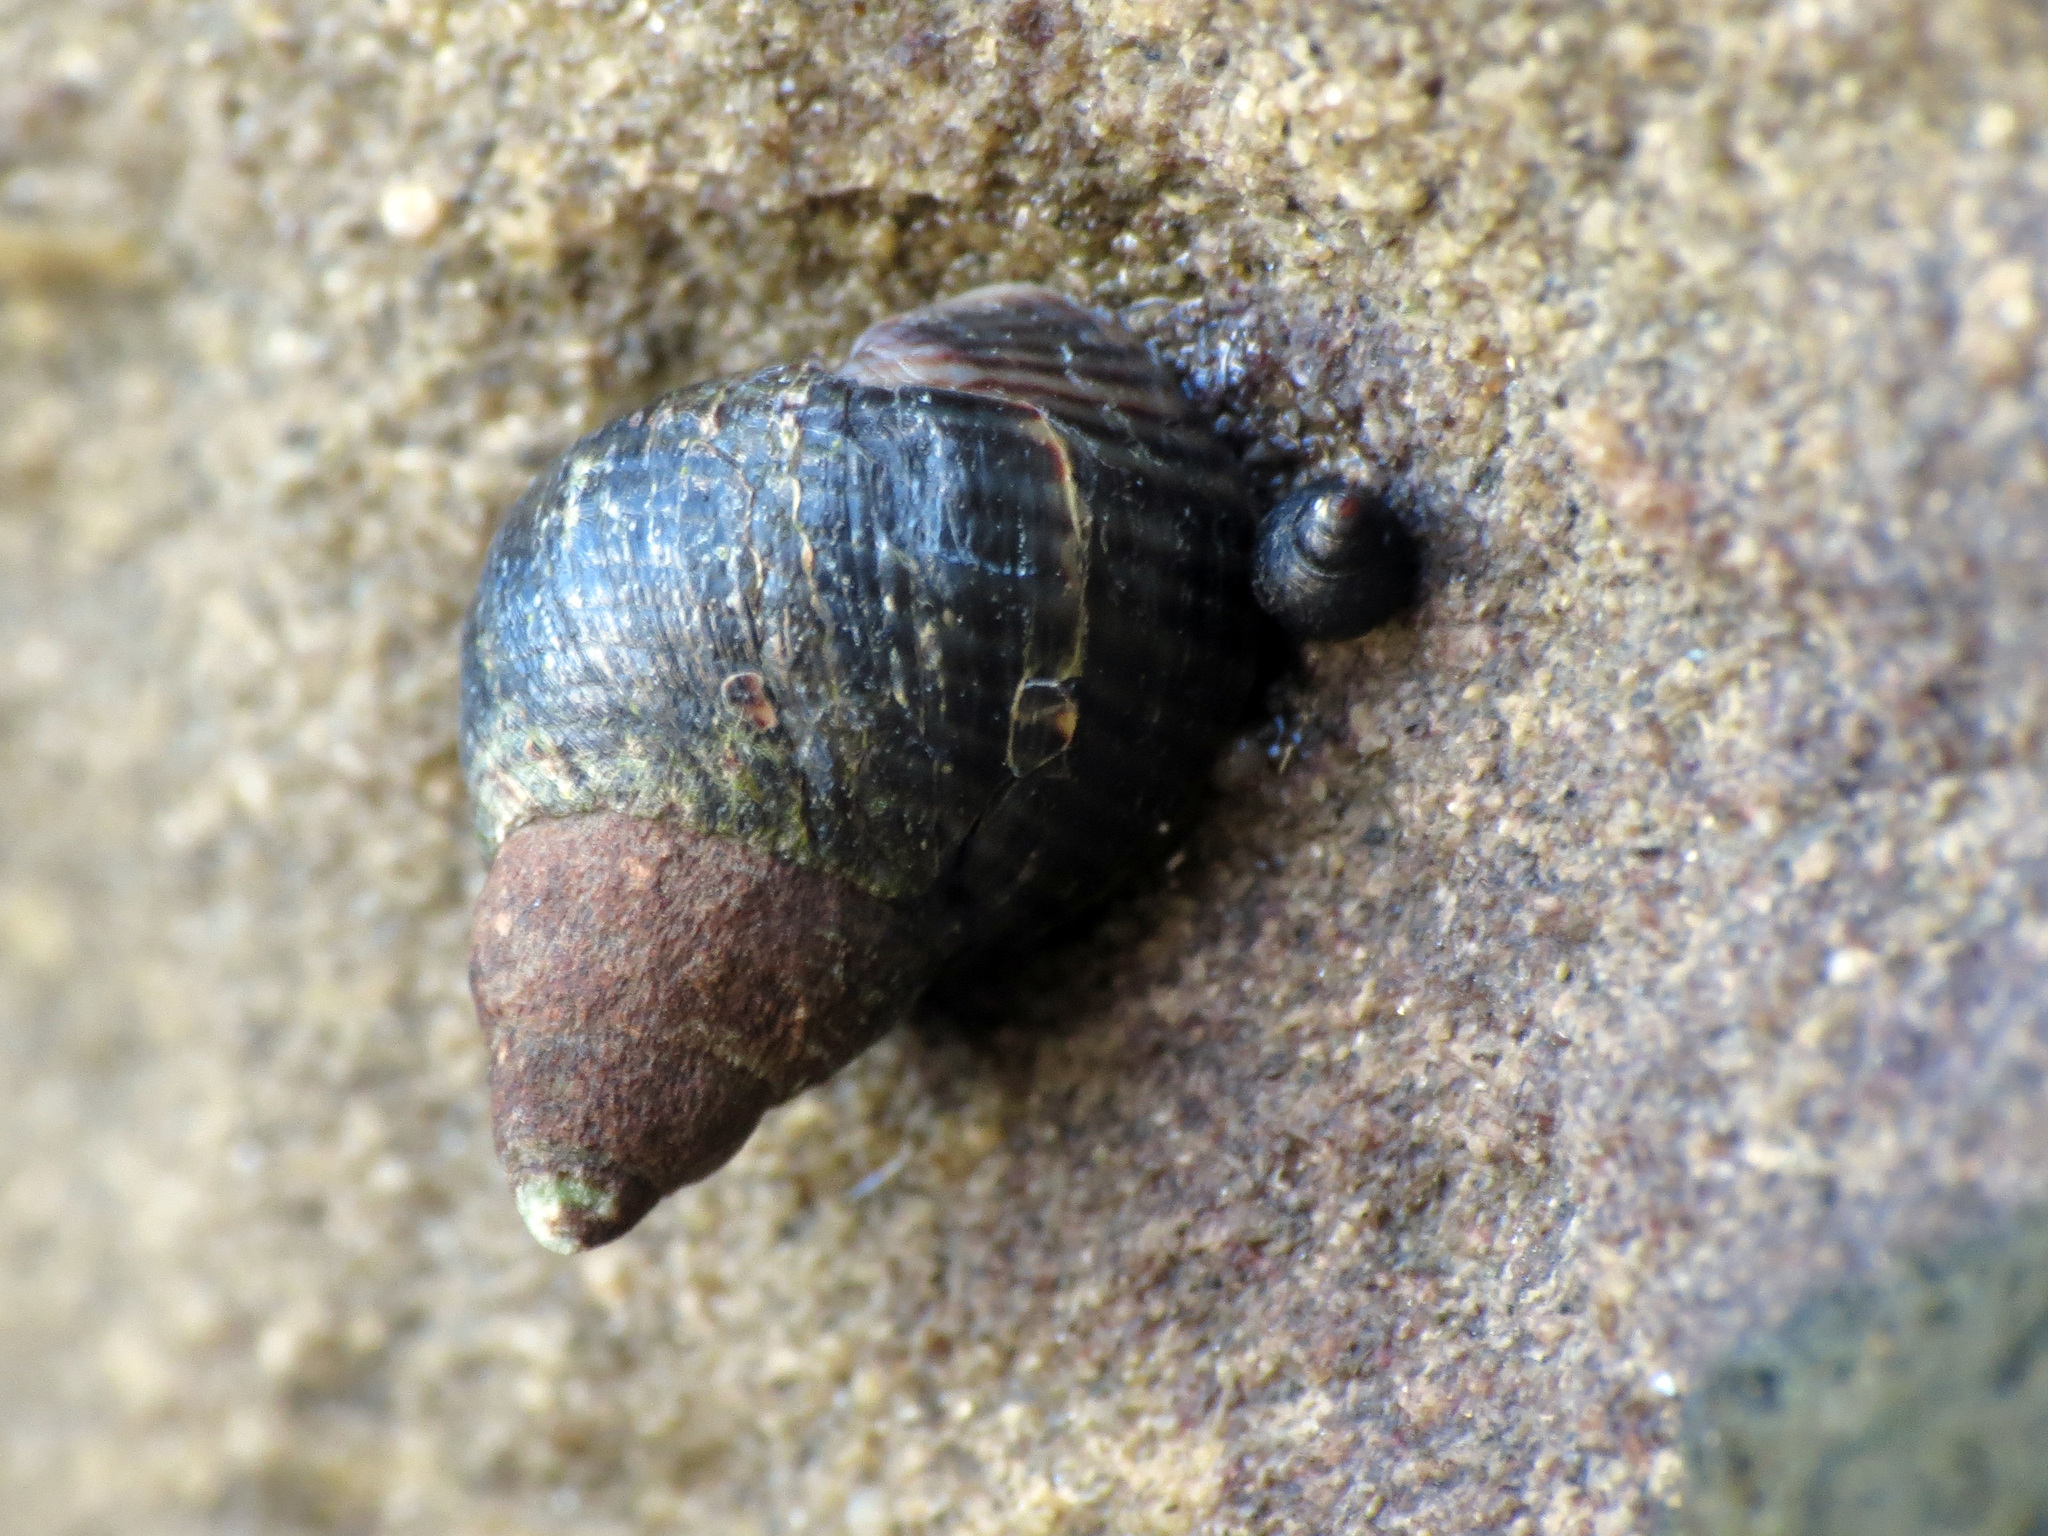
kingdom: Animalia
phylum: Mollusca
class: Gastropoda
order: Littorinimorpha
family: Littorinidae
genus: Austrolittorina
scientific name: Austrolittorina cincta
